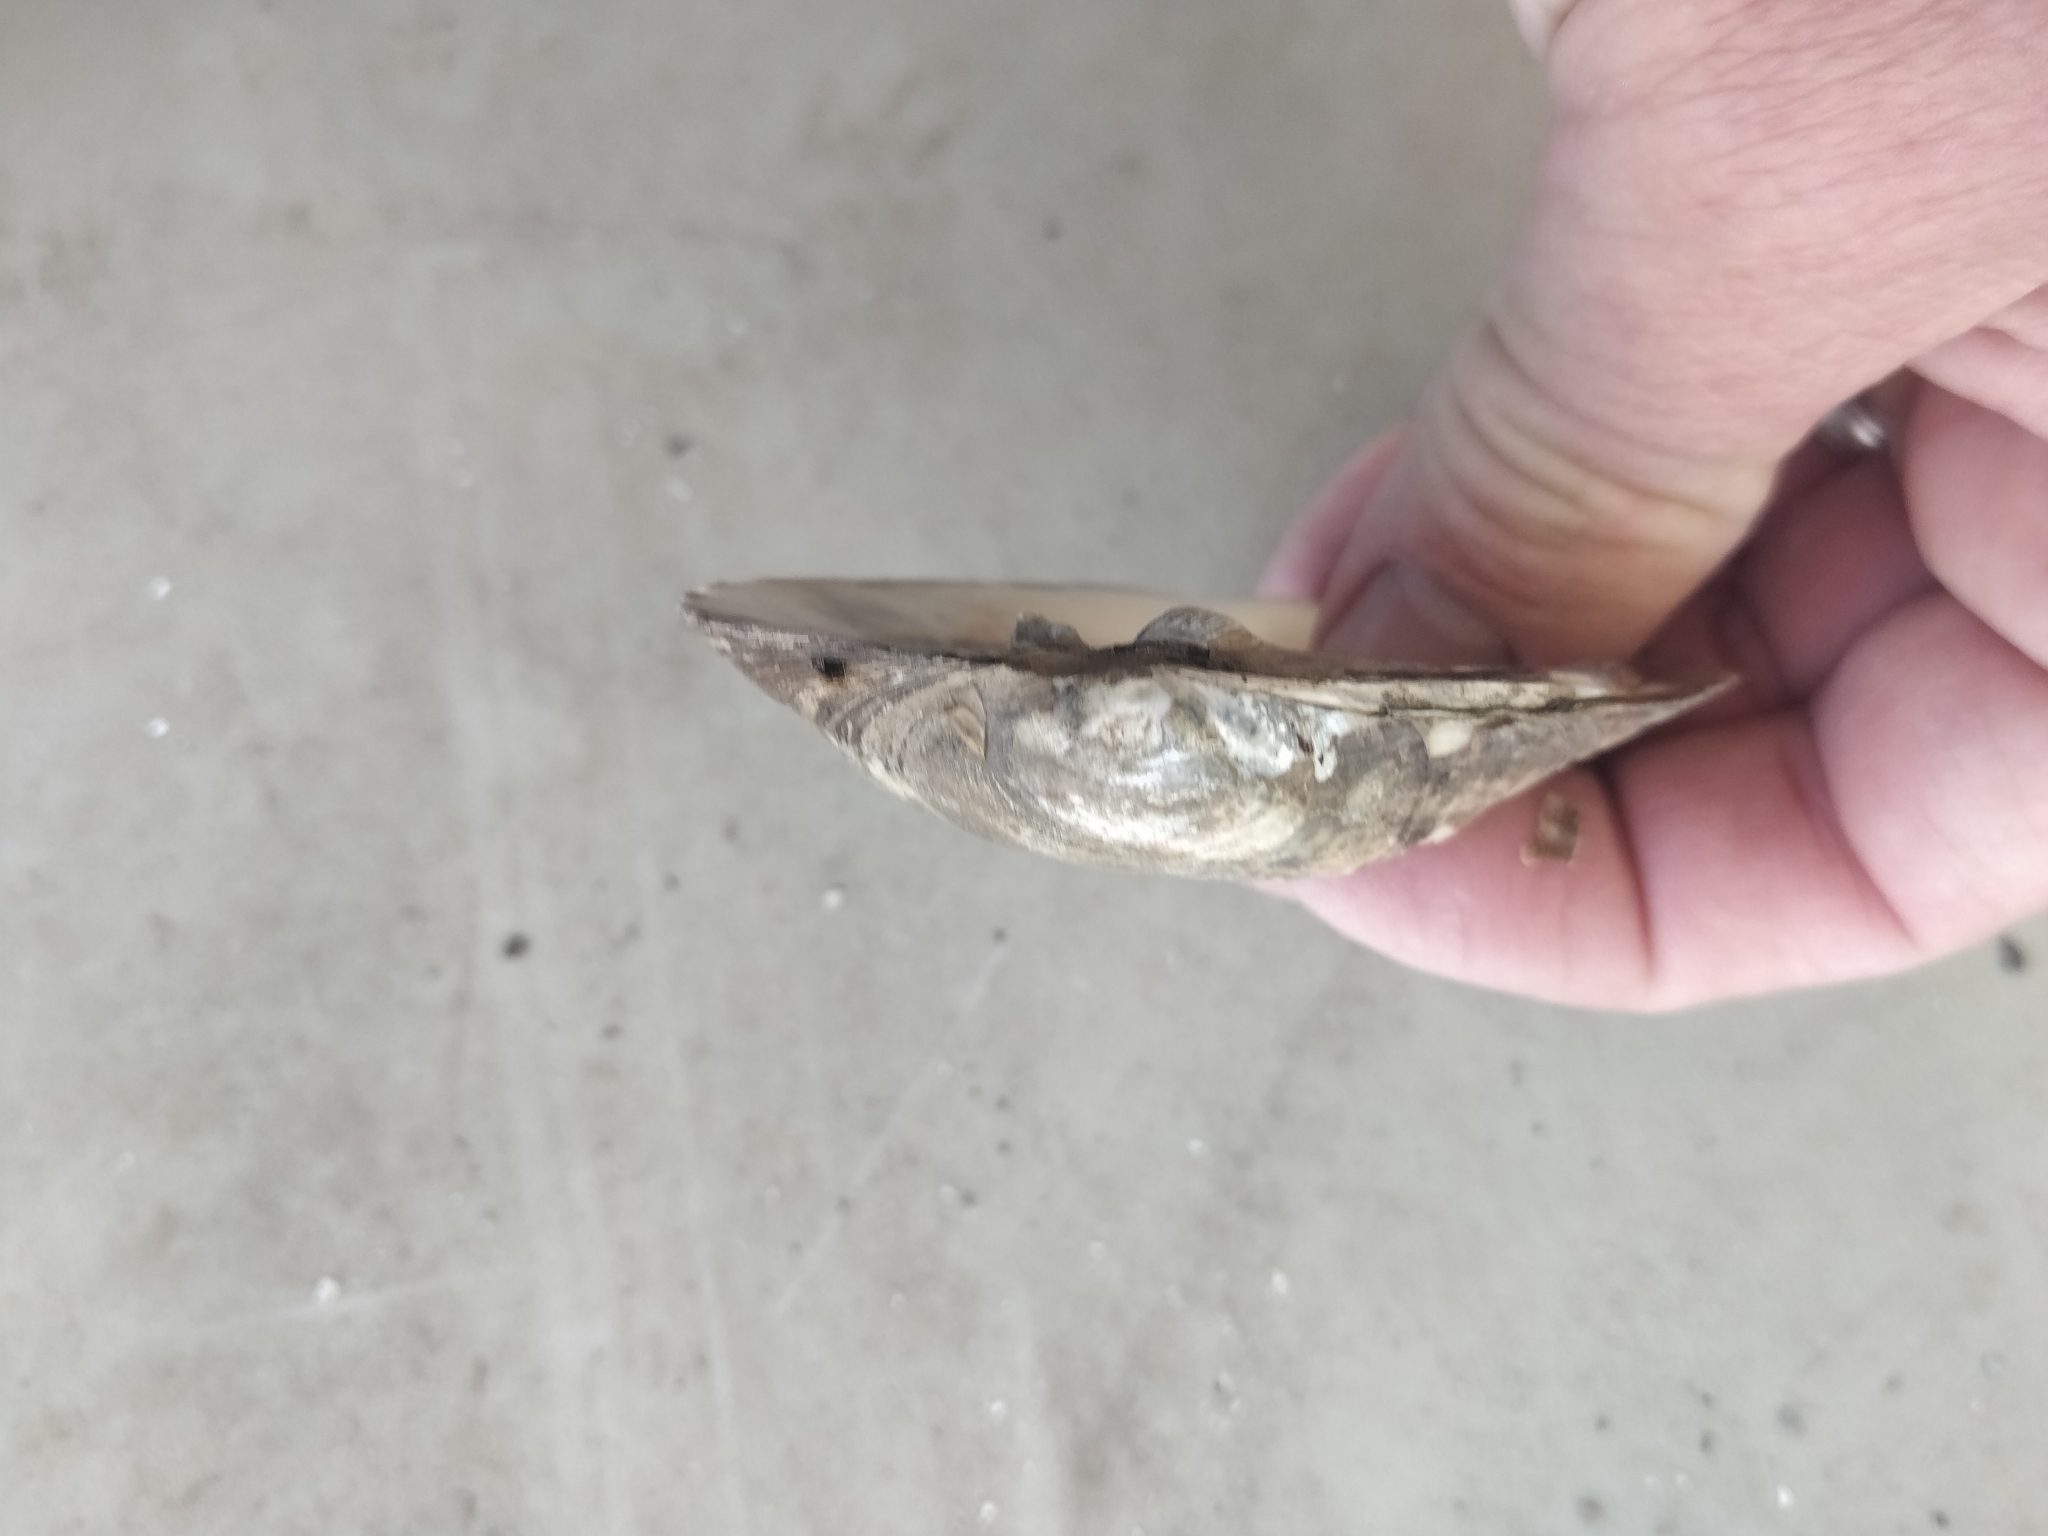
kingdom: Animalia
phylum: Mollusca
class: Bivalvia
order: Unionida
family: Unionidae
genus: Amblema
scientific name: Amblema plicata
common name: Threeridge
